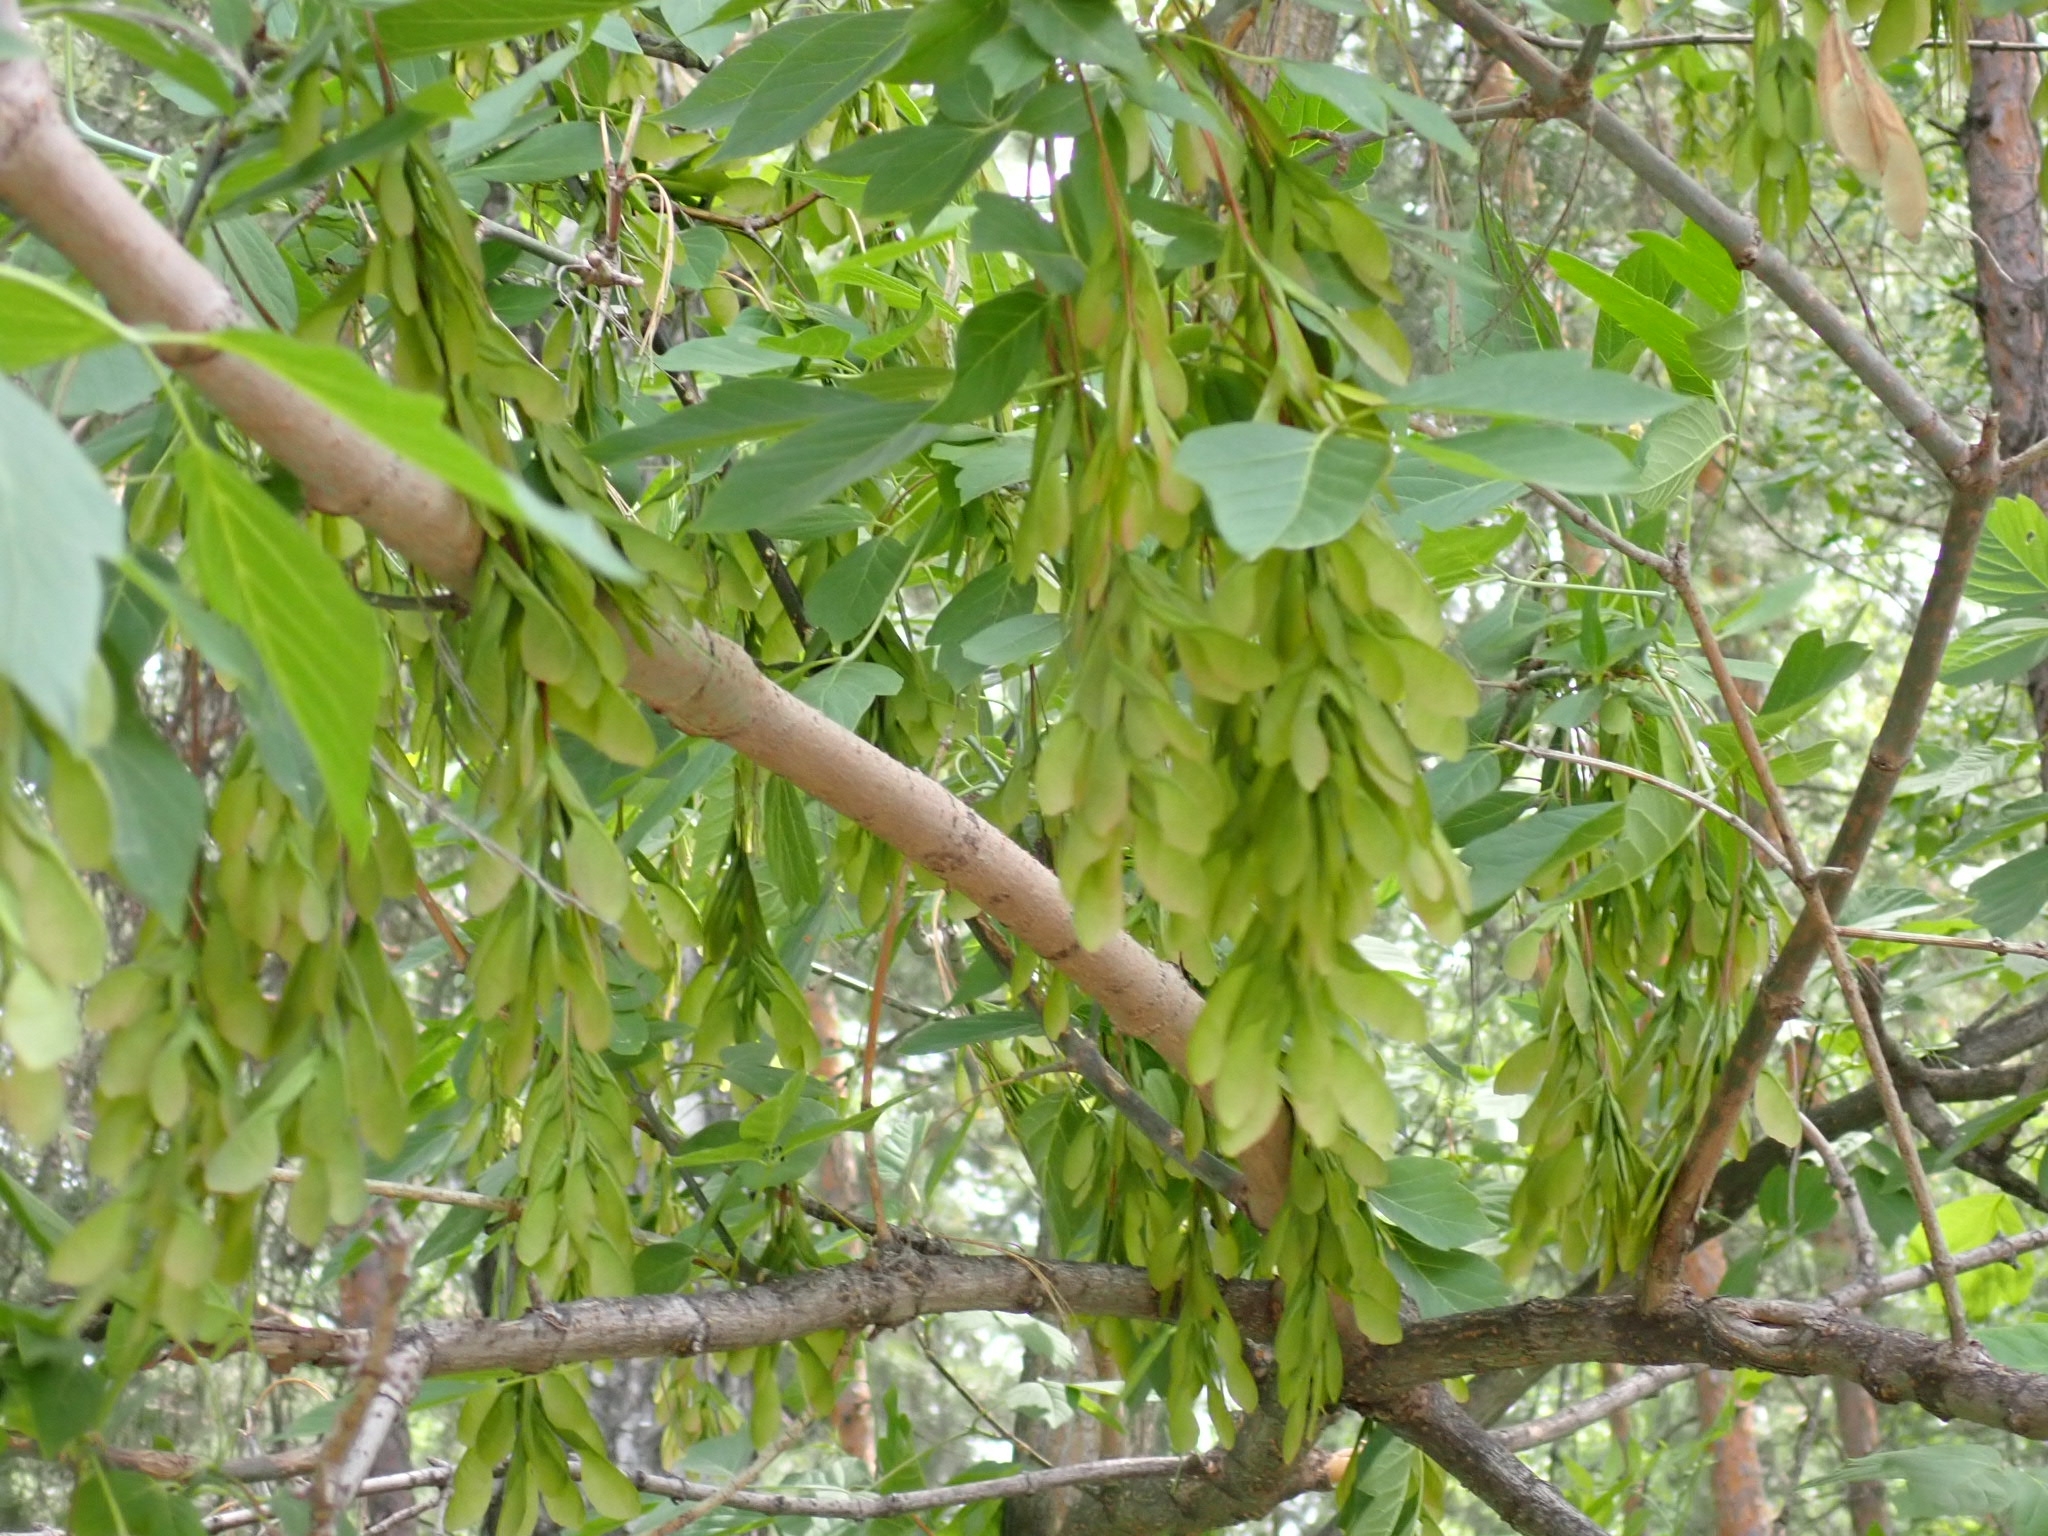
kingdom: Plantae
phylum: Tracheophyta
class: Magnoliopsida
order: Sapindales
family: Sapindaceae
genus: Acer
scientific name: Acer negundo
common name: Ashleaf maple
